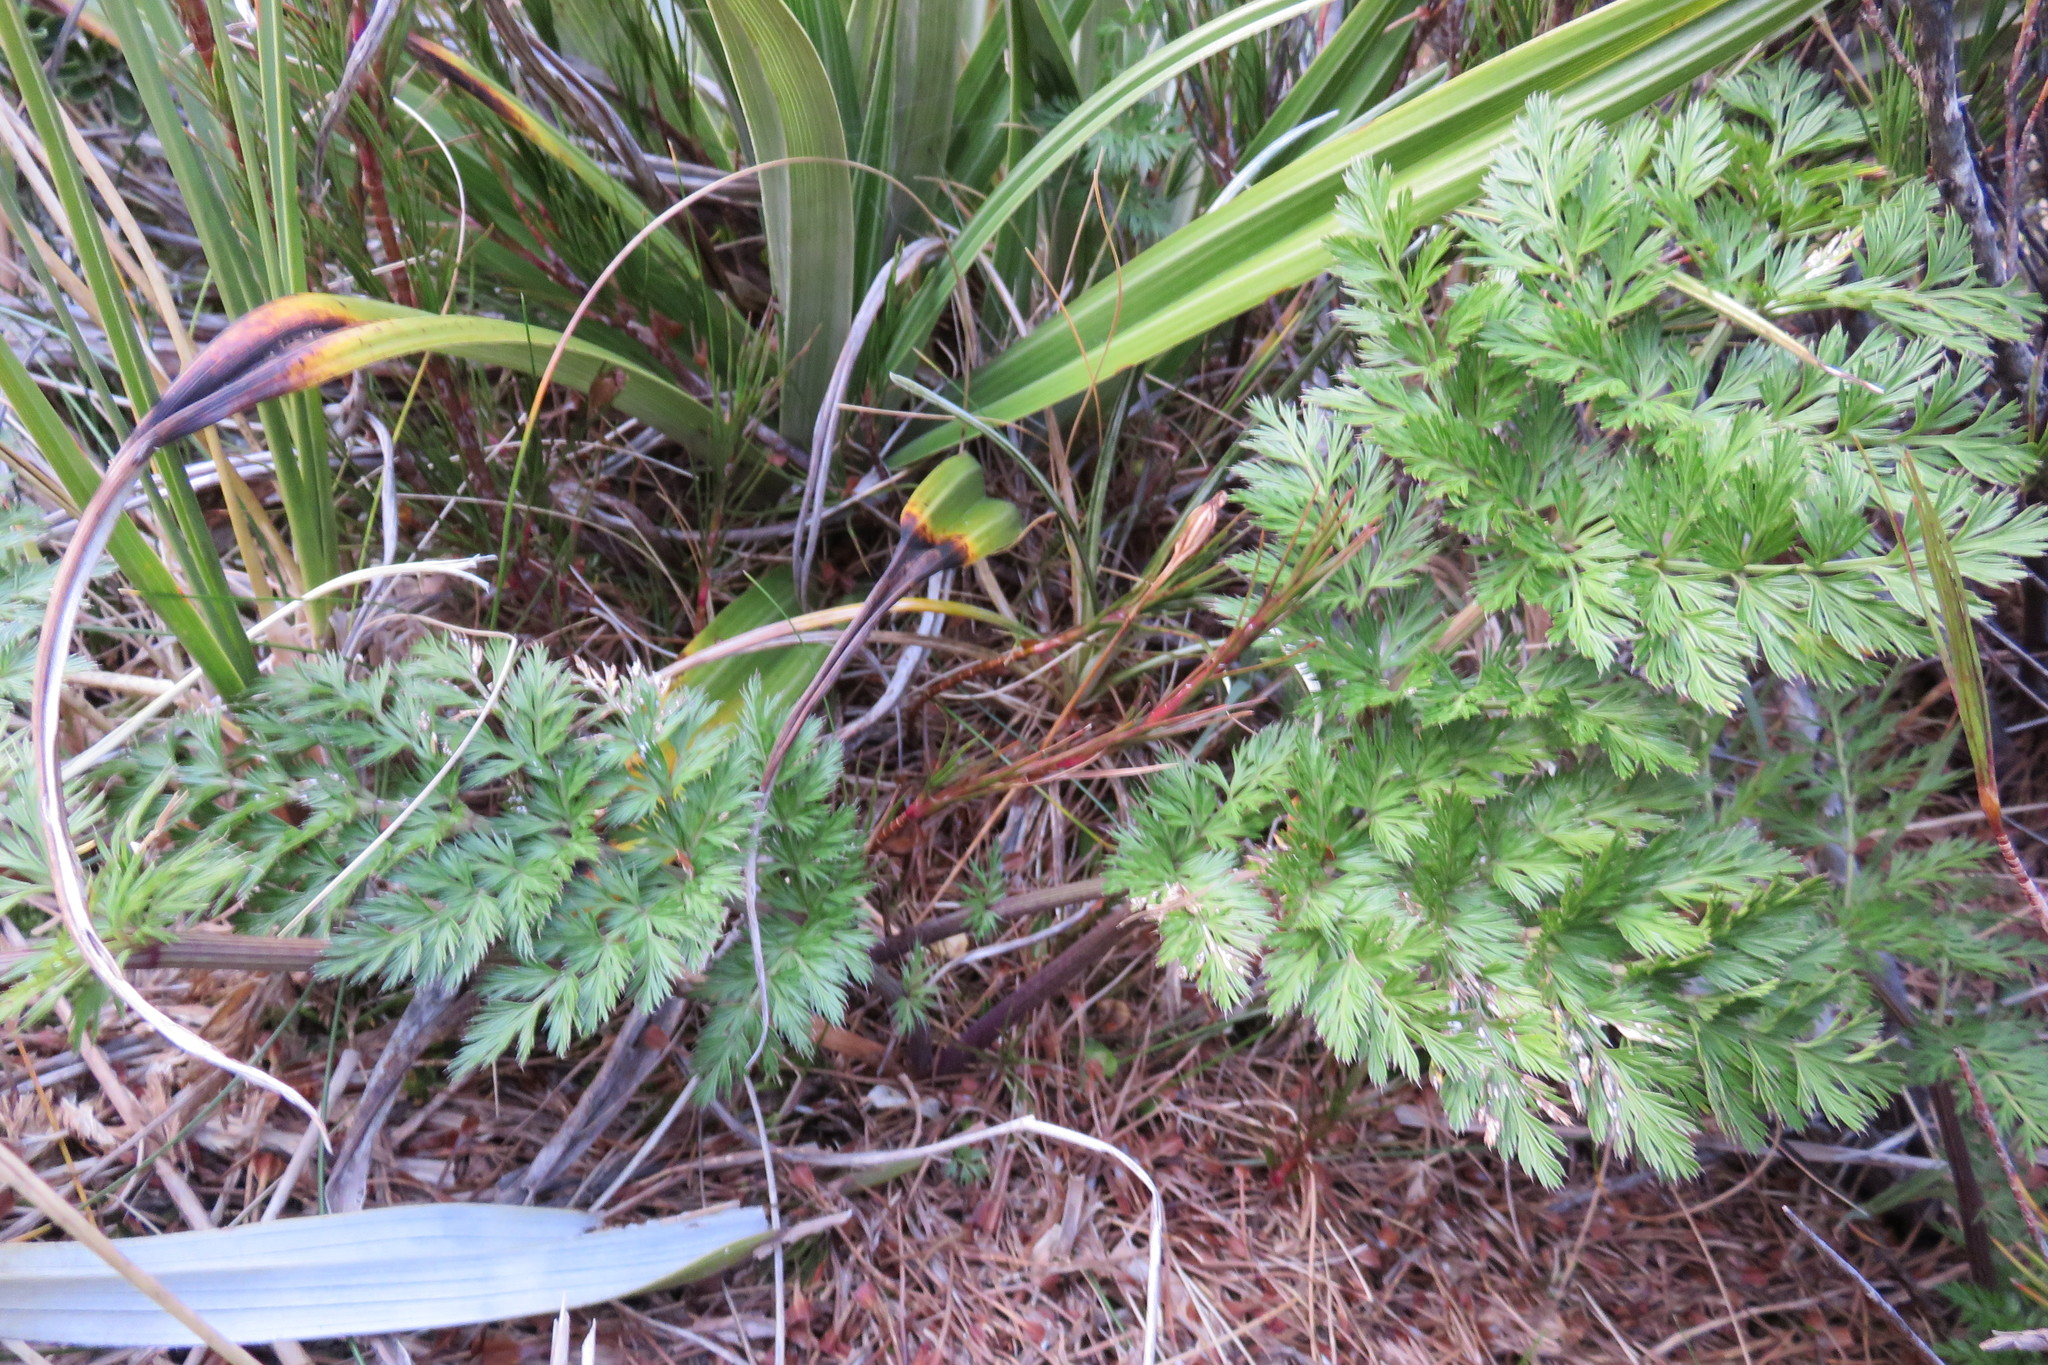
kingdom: Plantae
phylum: Tracheophyta
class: Magnoliopsida
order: Apiales
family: Apiaceae
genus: Anisotome
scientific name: Anisotome haastii
